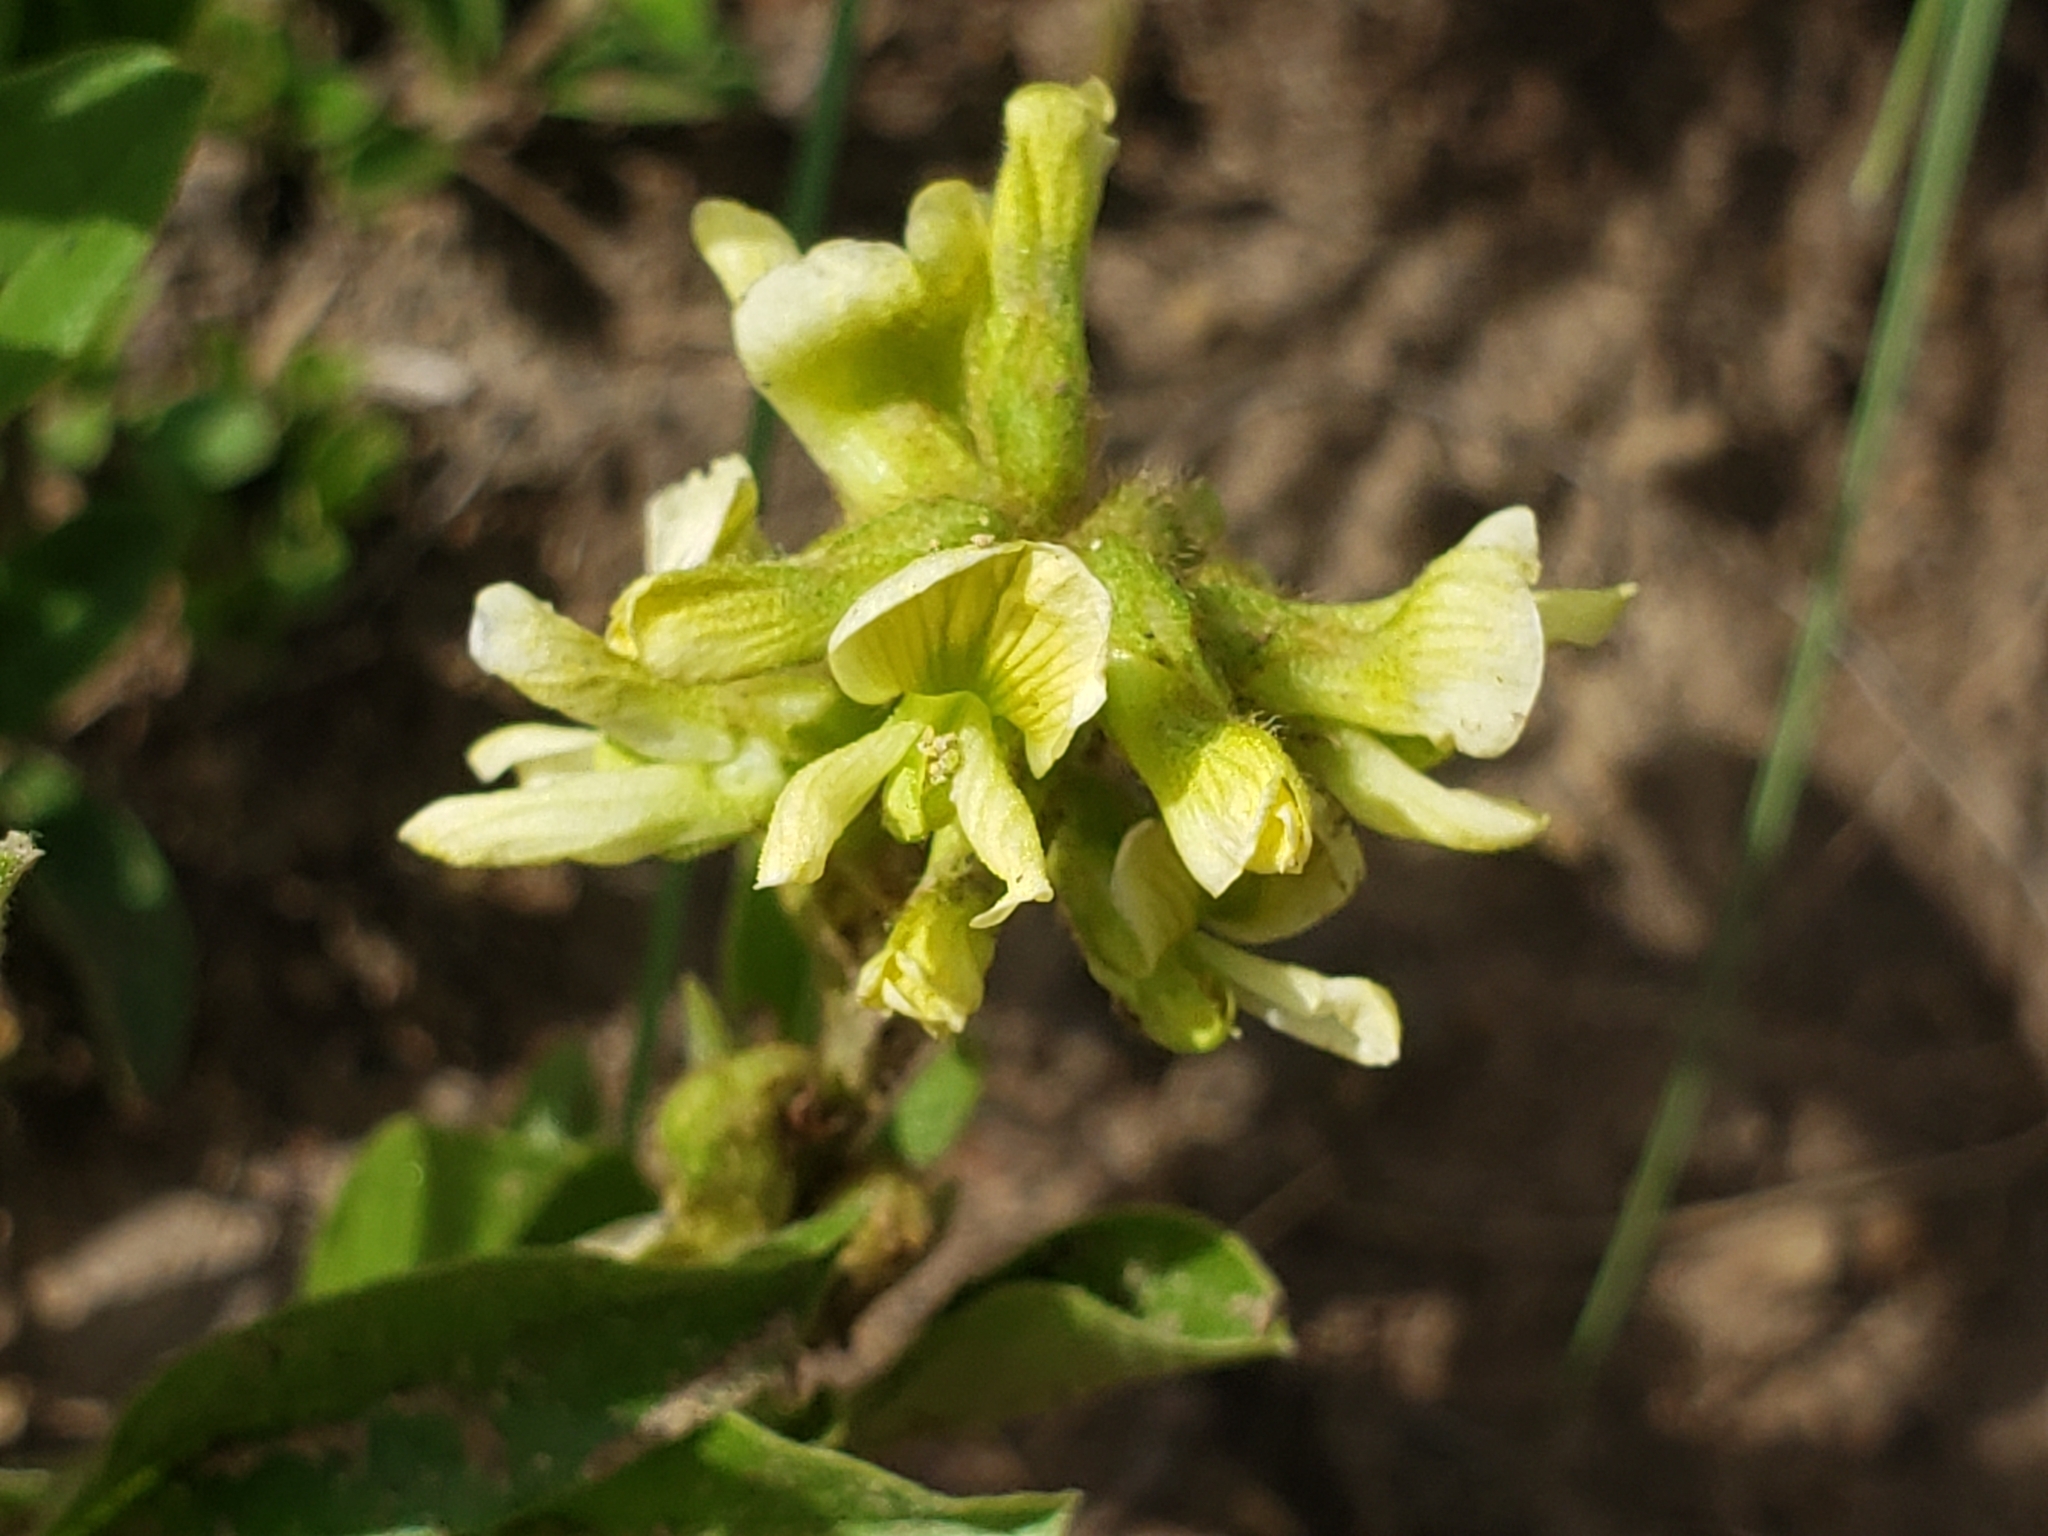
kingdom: Plantae
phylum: Tracheophyta
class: Magnoliopsida
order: Fabales
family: Fabaceae
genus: Eriosema
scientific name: Eriosema kraussianum
